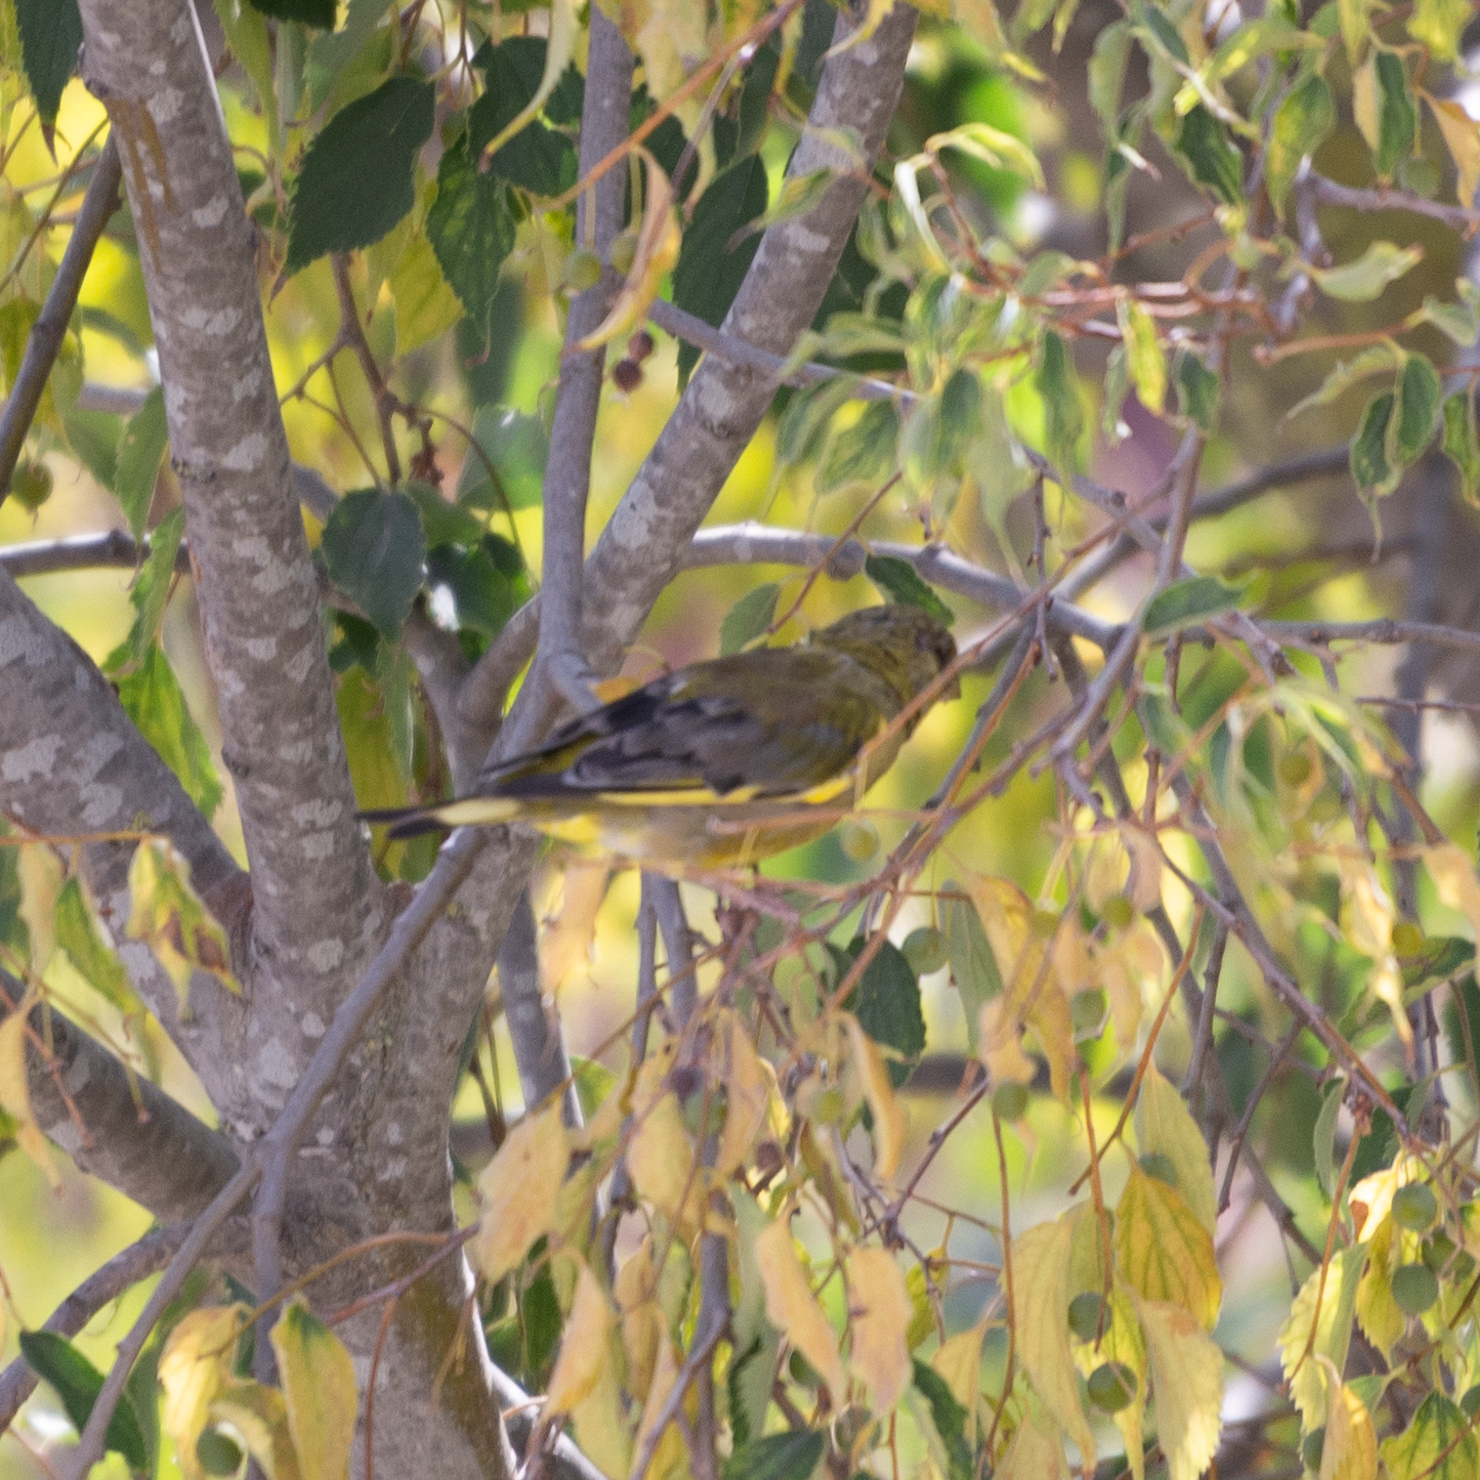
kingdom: Plantae
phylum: Tracheophyta
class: Liliopsida
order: Poales
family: Poaceae
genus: Chloris
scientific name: Chloris chloris
